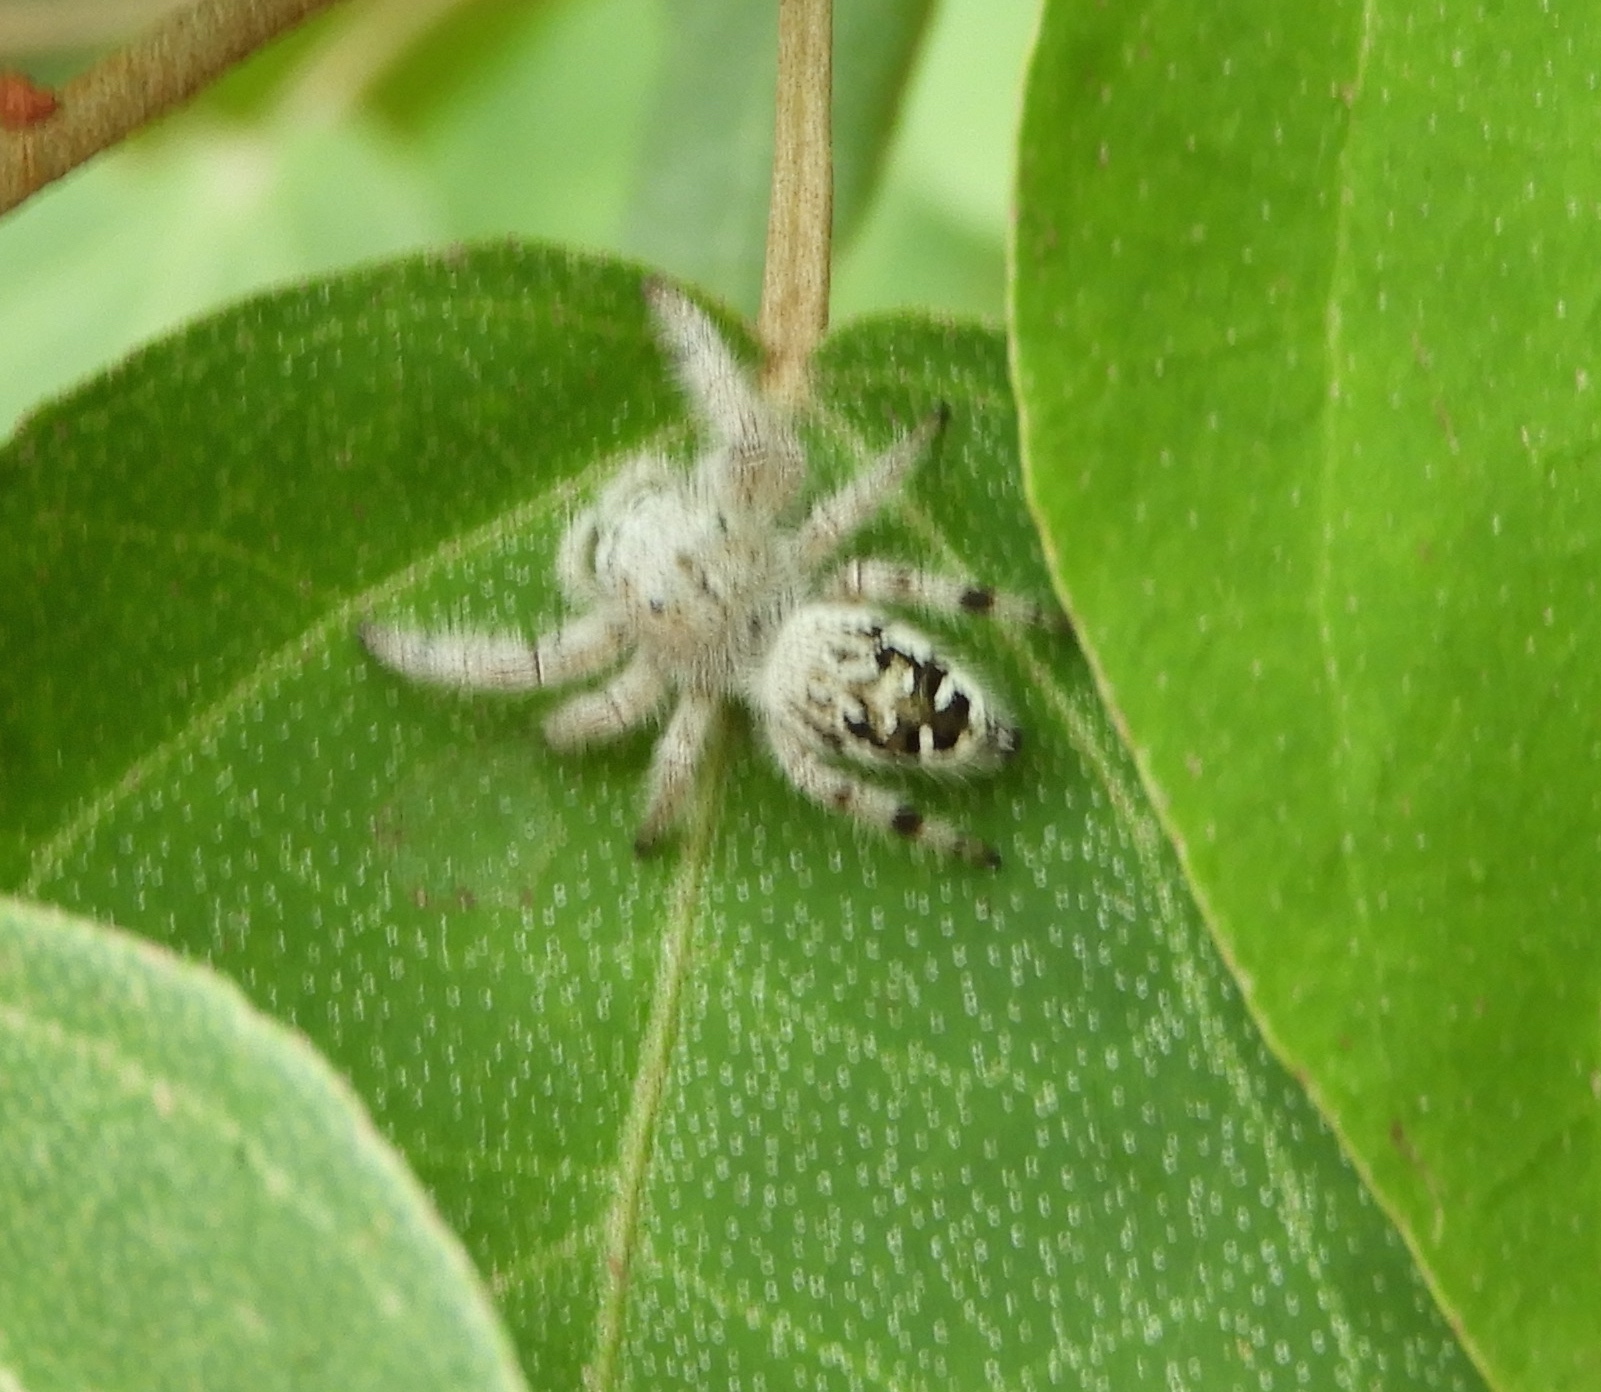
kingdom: Animalia
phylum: Arthropoda
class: Arachnida
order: Araneae
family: Salticidae
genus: Paraphidippus
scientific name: Paraphidippus fartilis
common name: Jumping spiders
